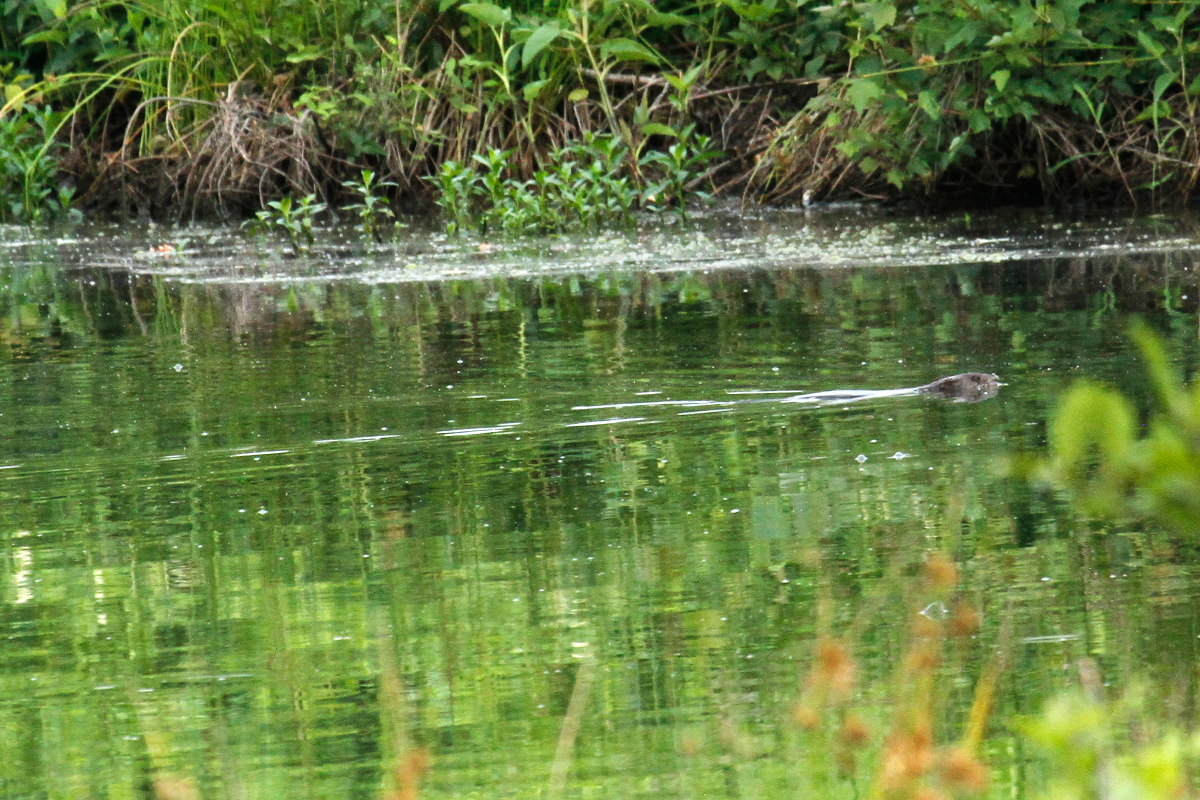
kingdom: Animalia
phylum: Chordata
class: Mammalia
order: Rodentia
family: Cricetidae
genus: Ondatra
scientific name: Ondatra zibethicus
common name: Muskrat
